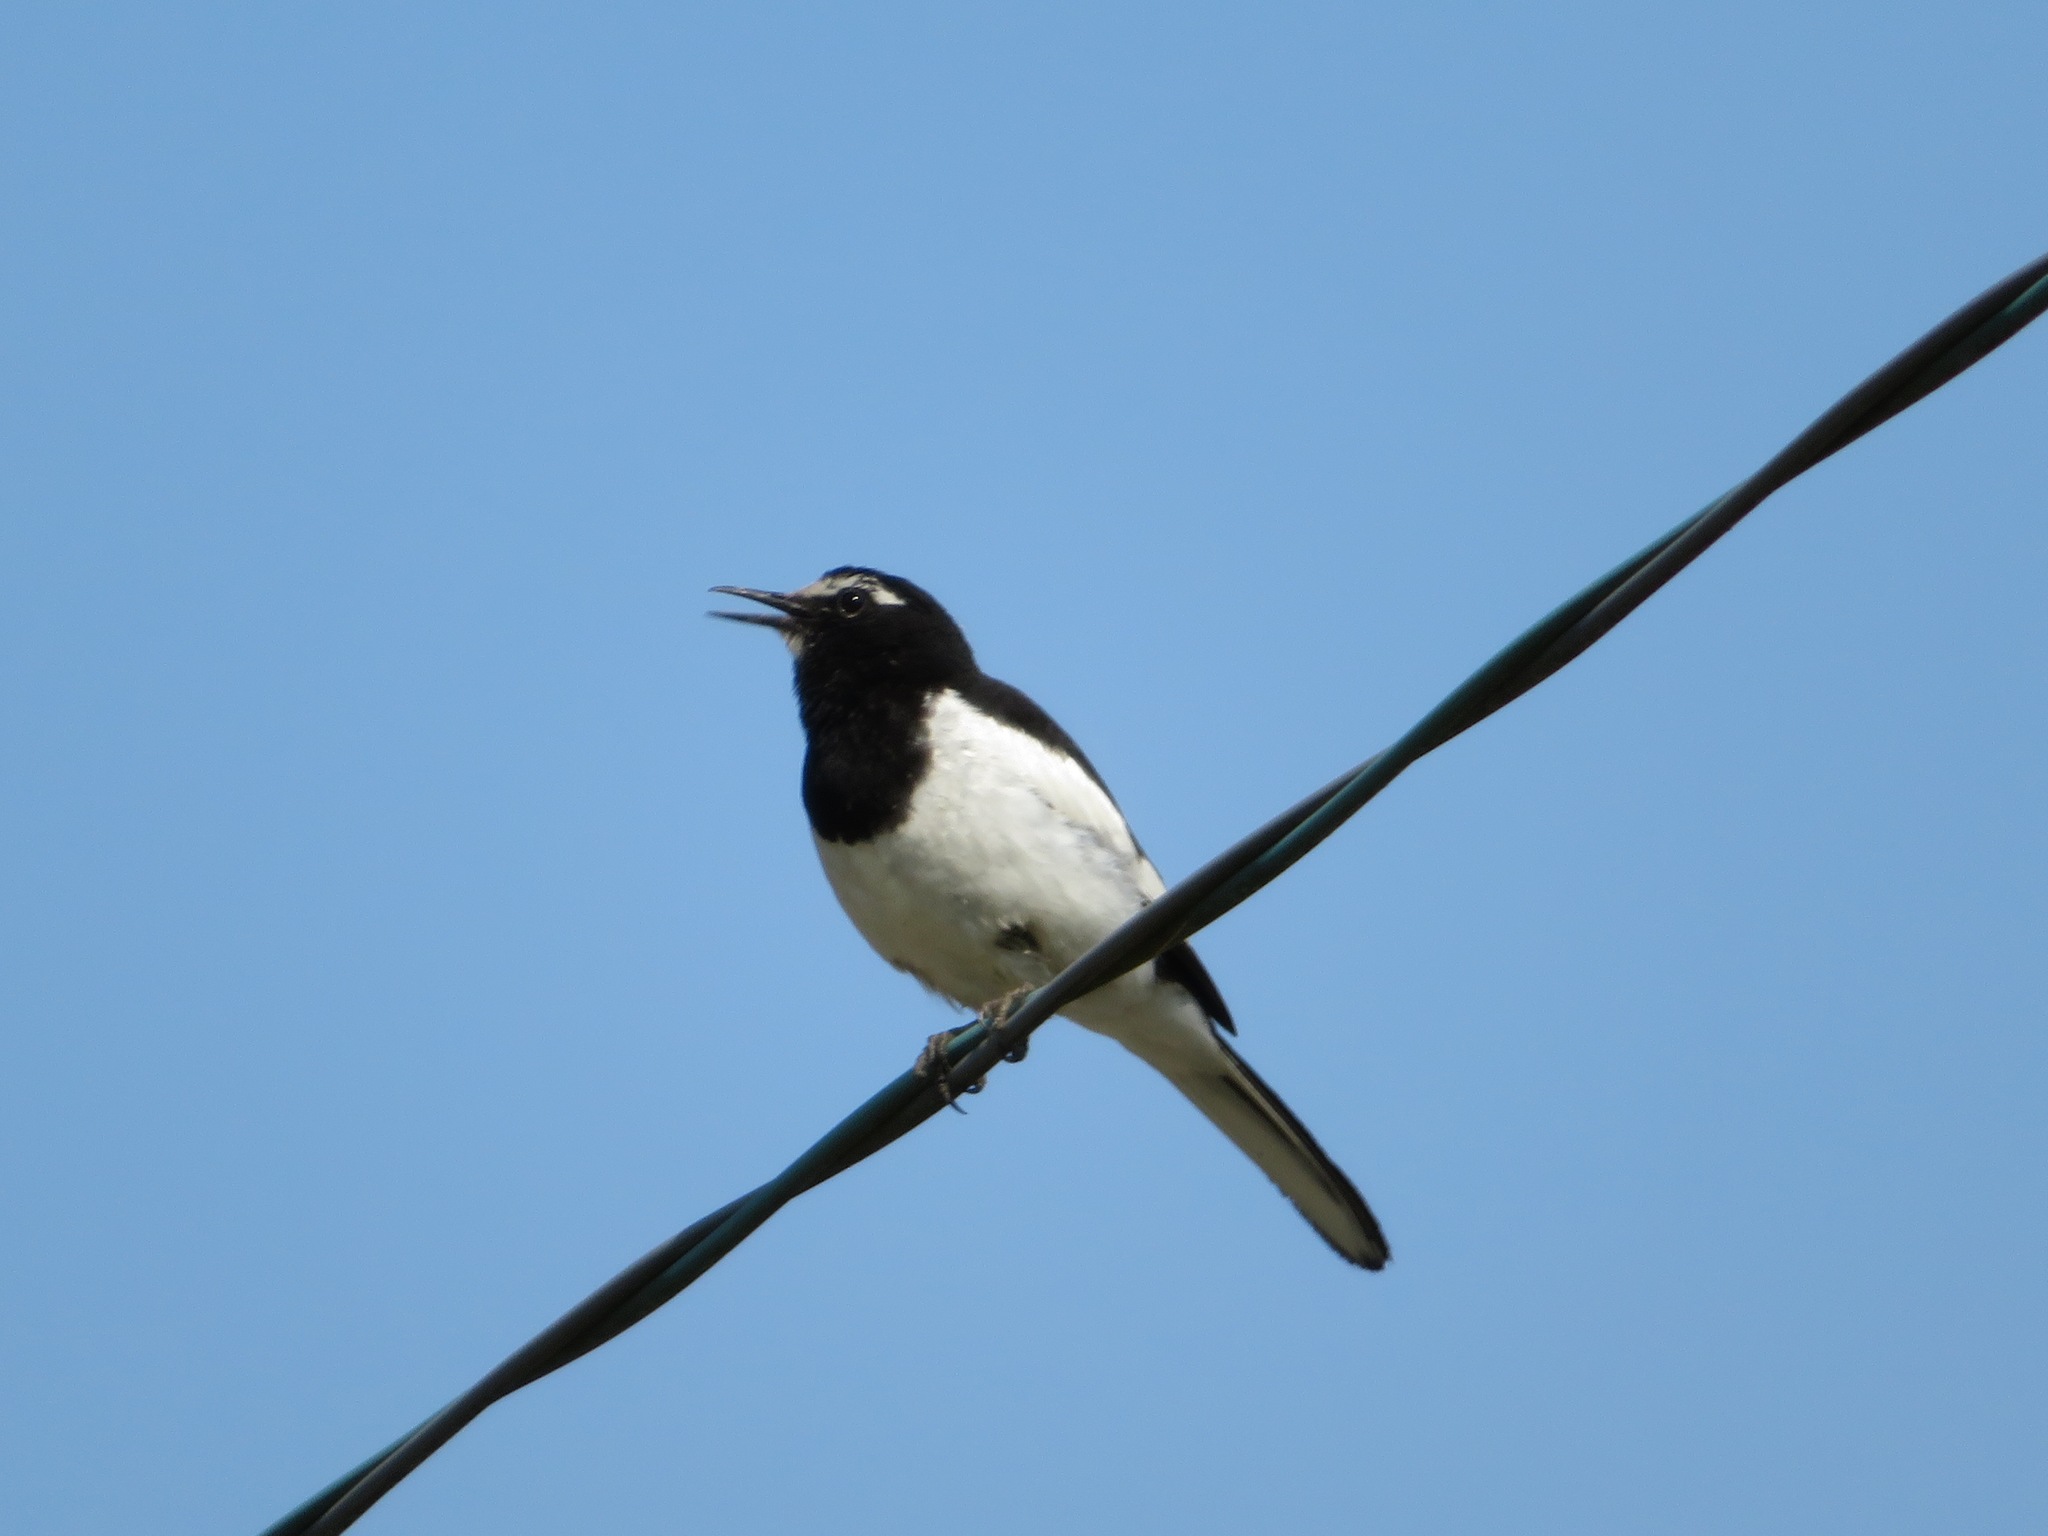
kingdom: Animalia
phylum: Chordata
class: Aves
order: Passeriformes
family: Motacillidae
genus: Motacilla
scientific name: Motacilla grandis
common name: Japanese wagtail
